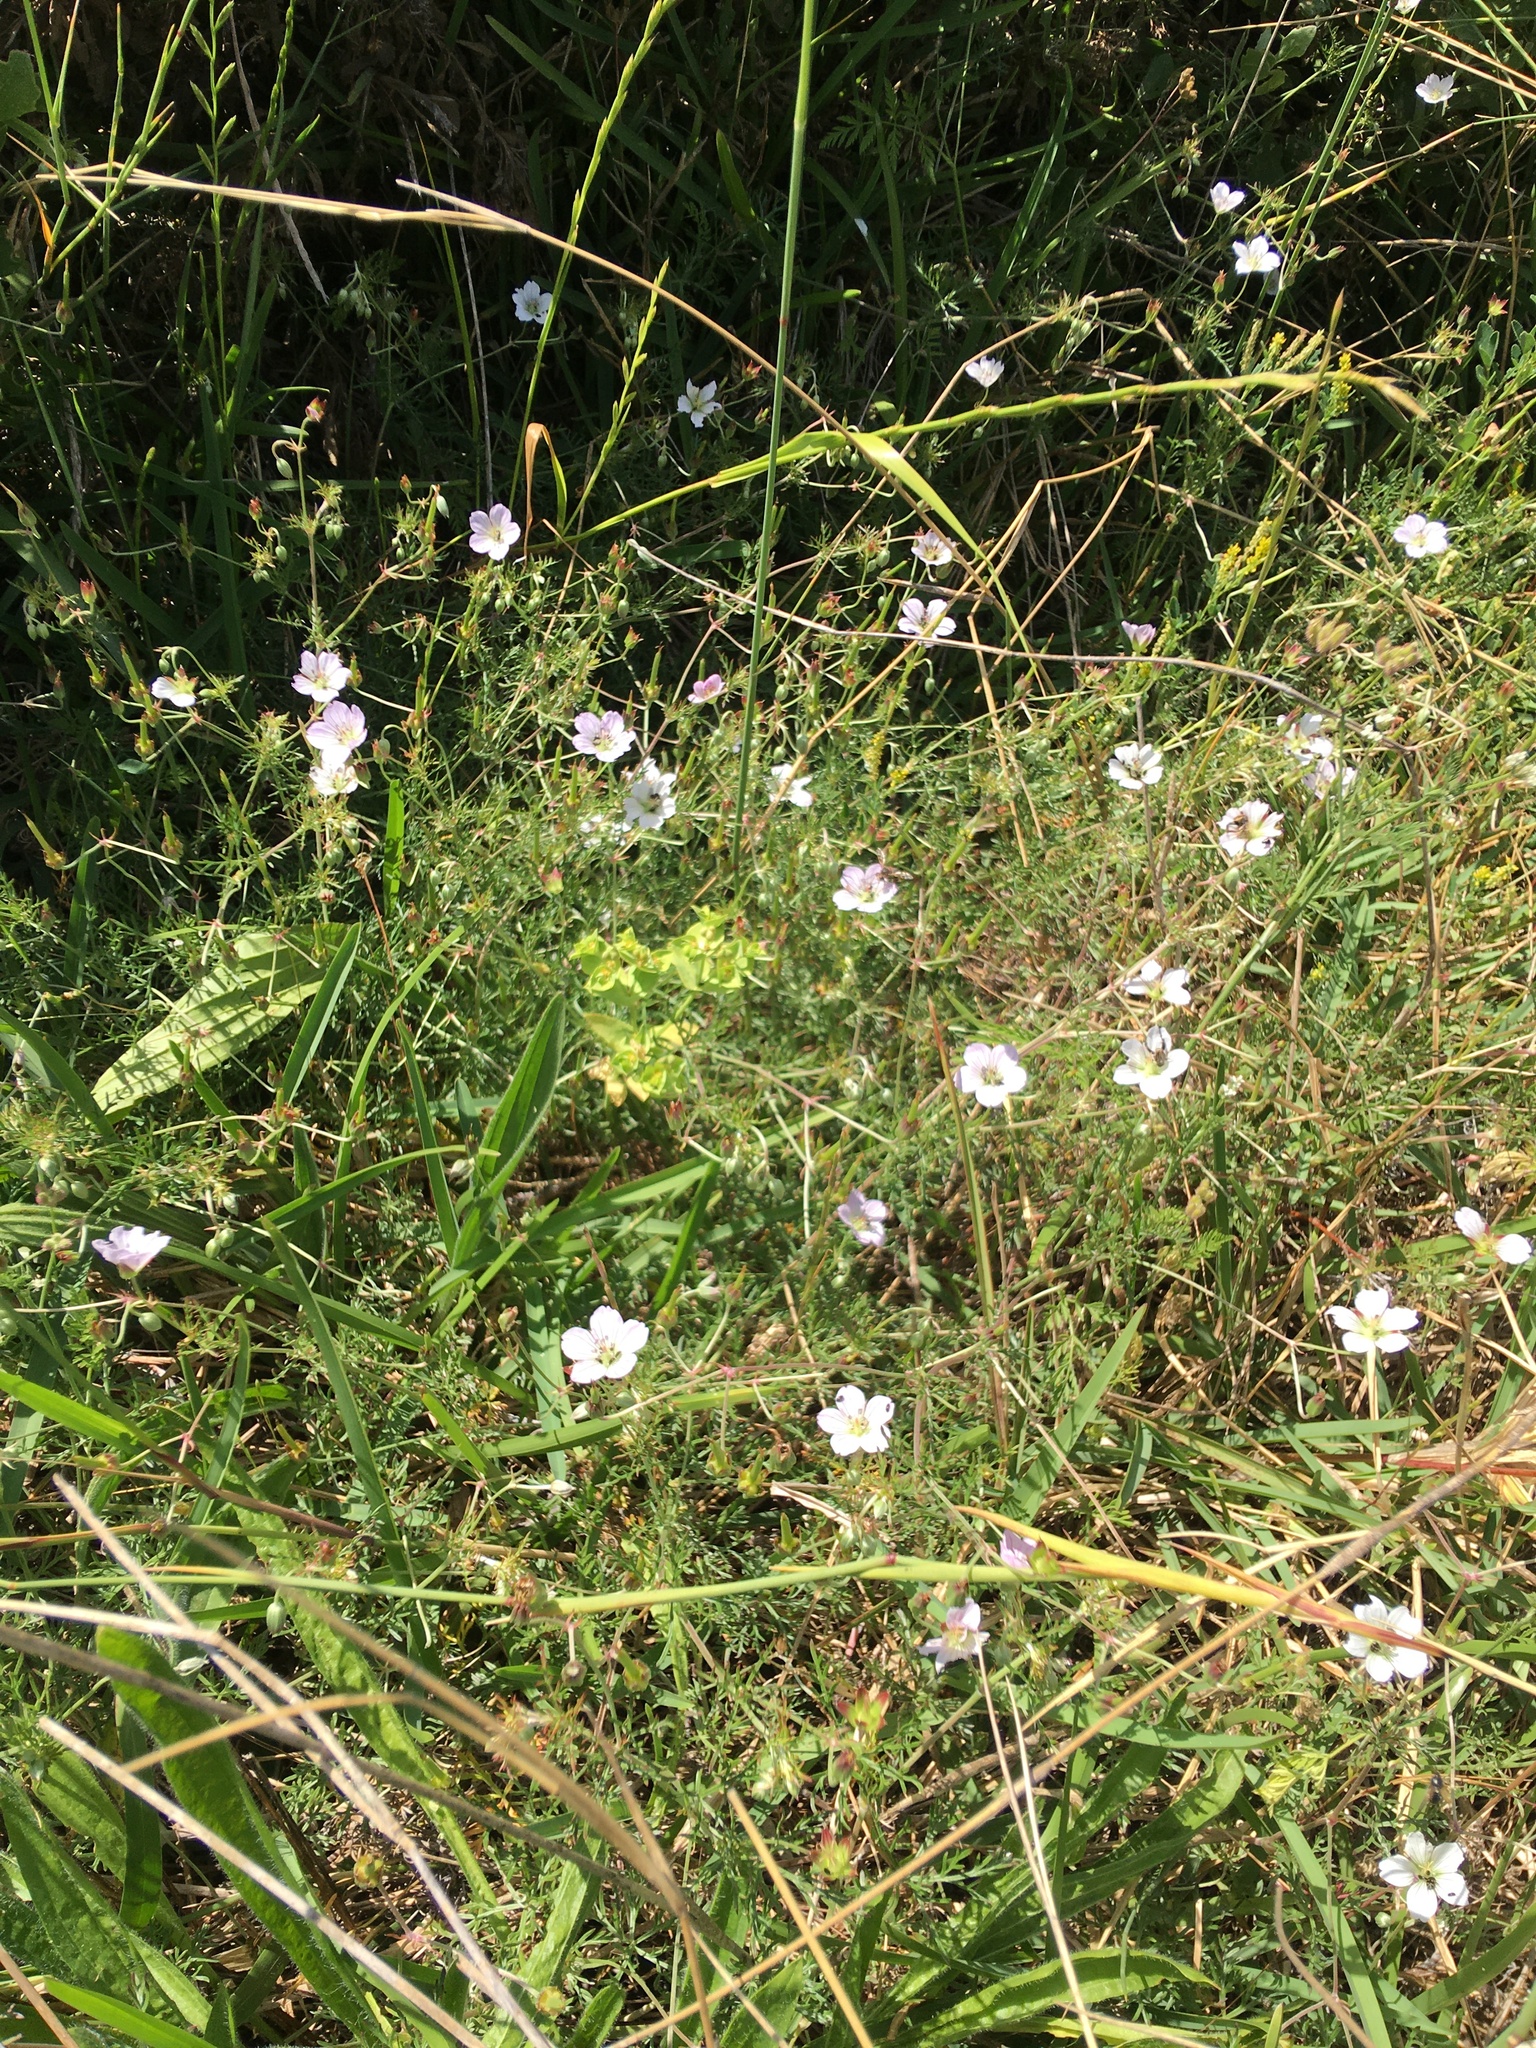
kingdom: Plantae
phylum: Tracheophyta
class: Magnoliopsida
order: Geraniales
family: Geraniaceae
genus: Geranium
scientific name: Geranium incanum
